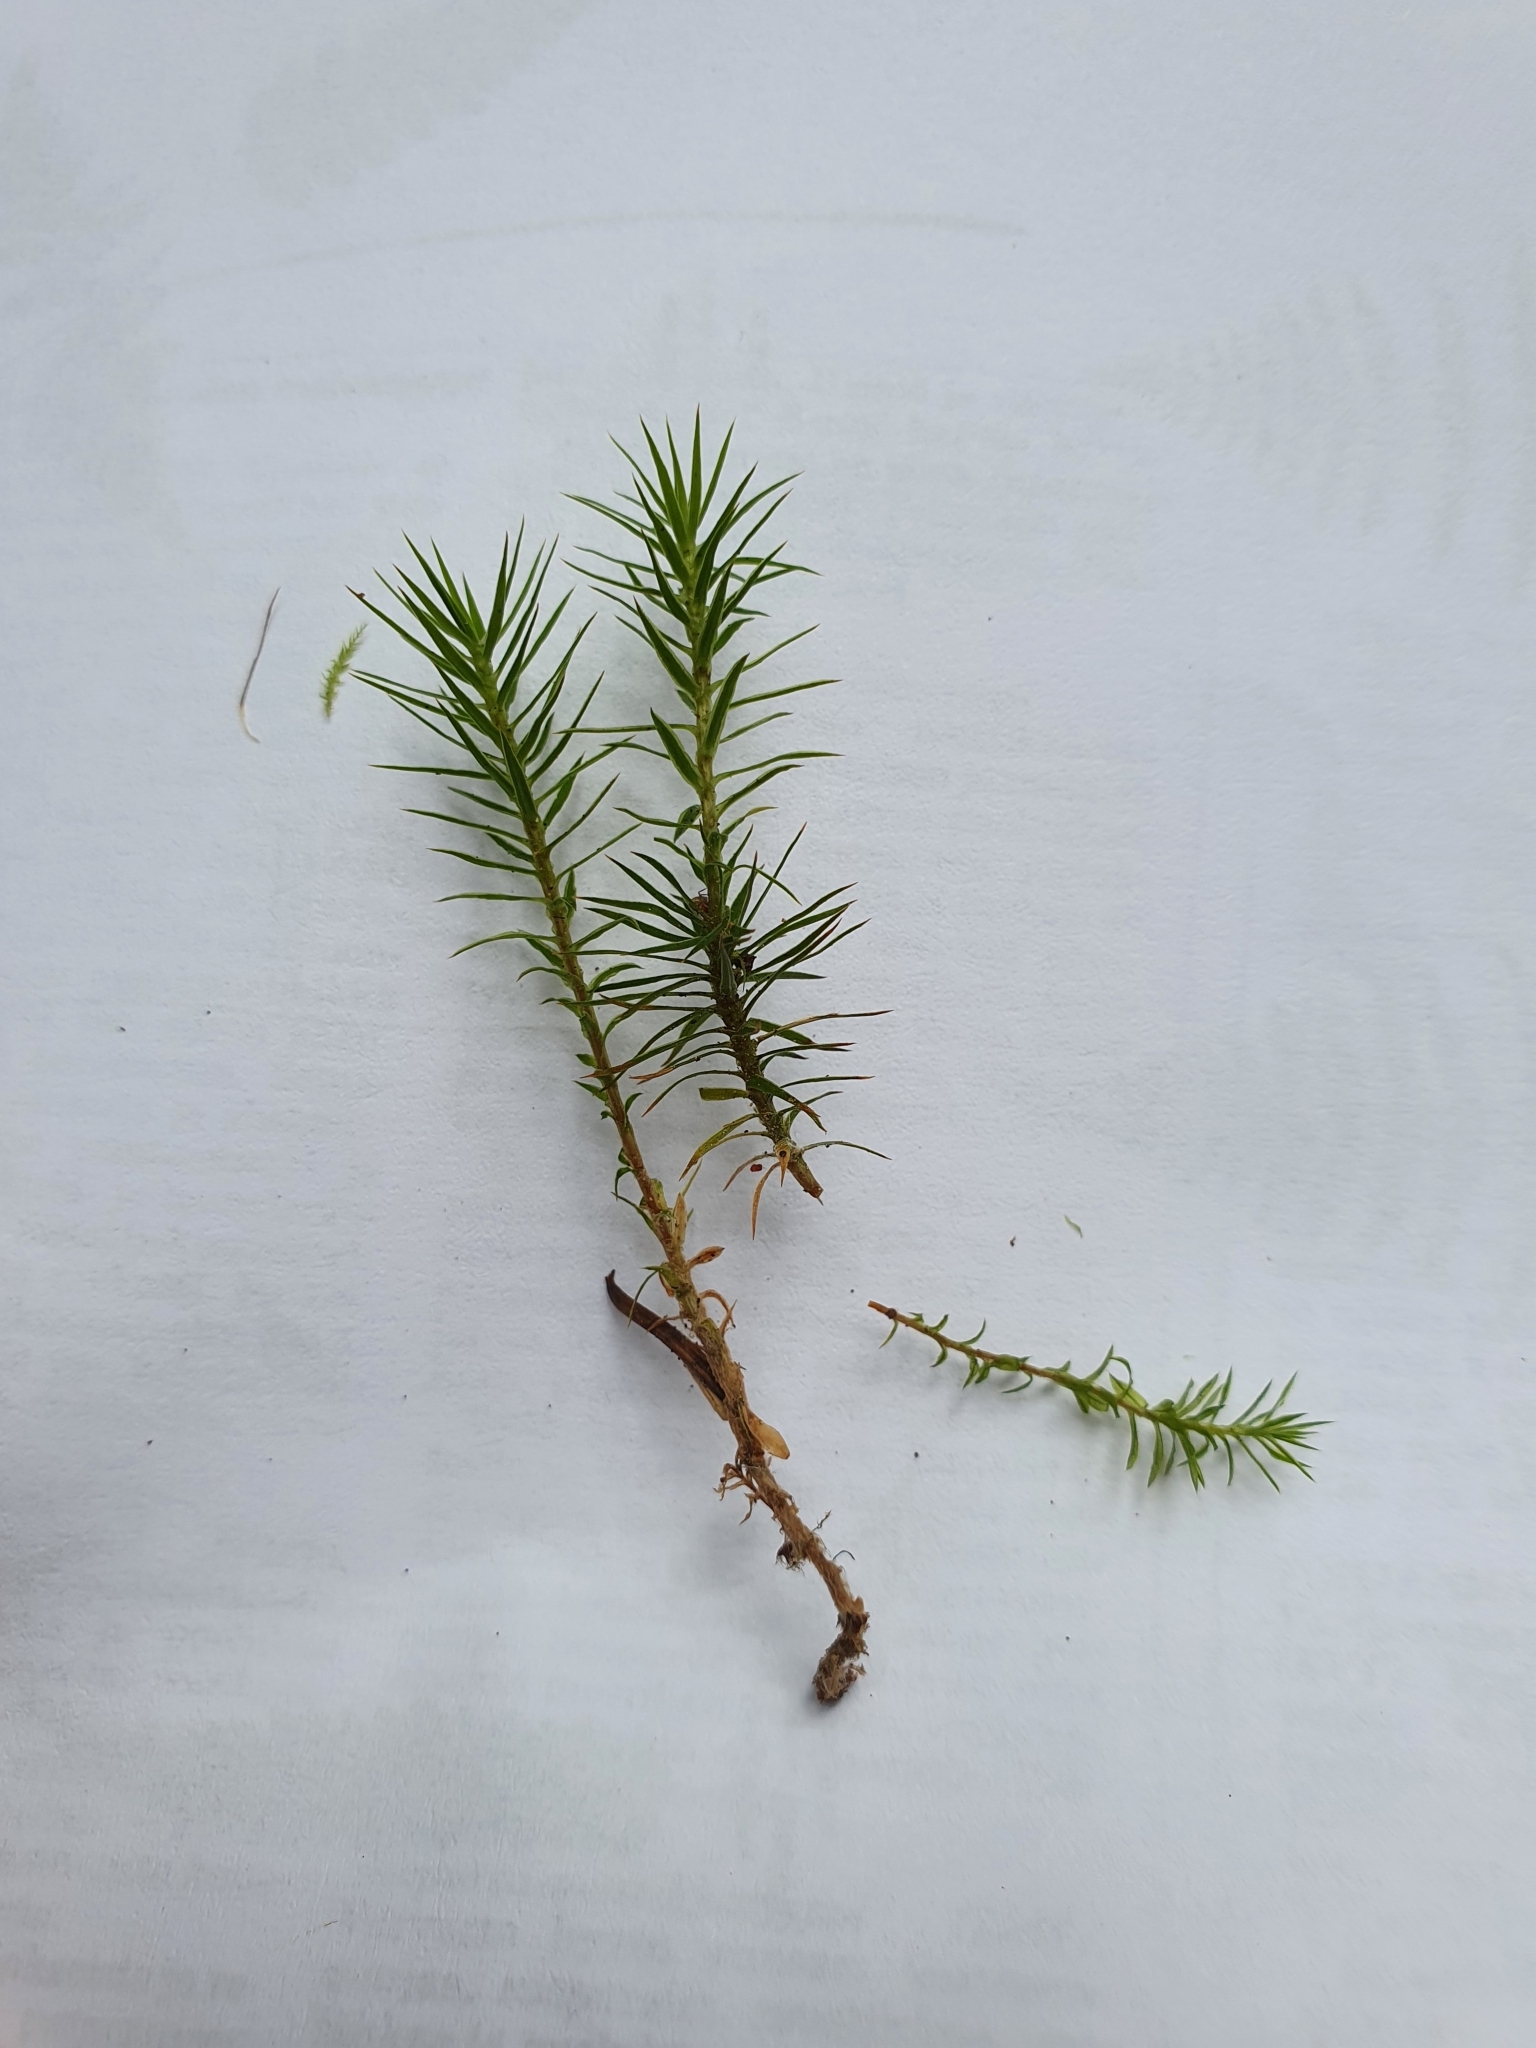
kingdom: Plantae
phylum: Bryophyta
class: Polytrichopsida
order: Polytrichales
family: Polytrichaceae
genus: Polytrichum
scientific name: Polytrichum commune
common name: Common haircap
